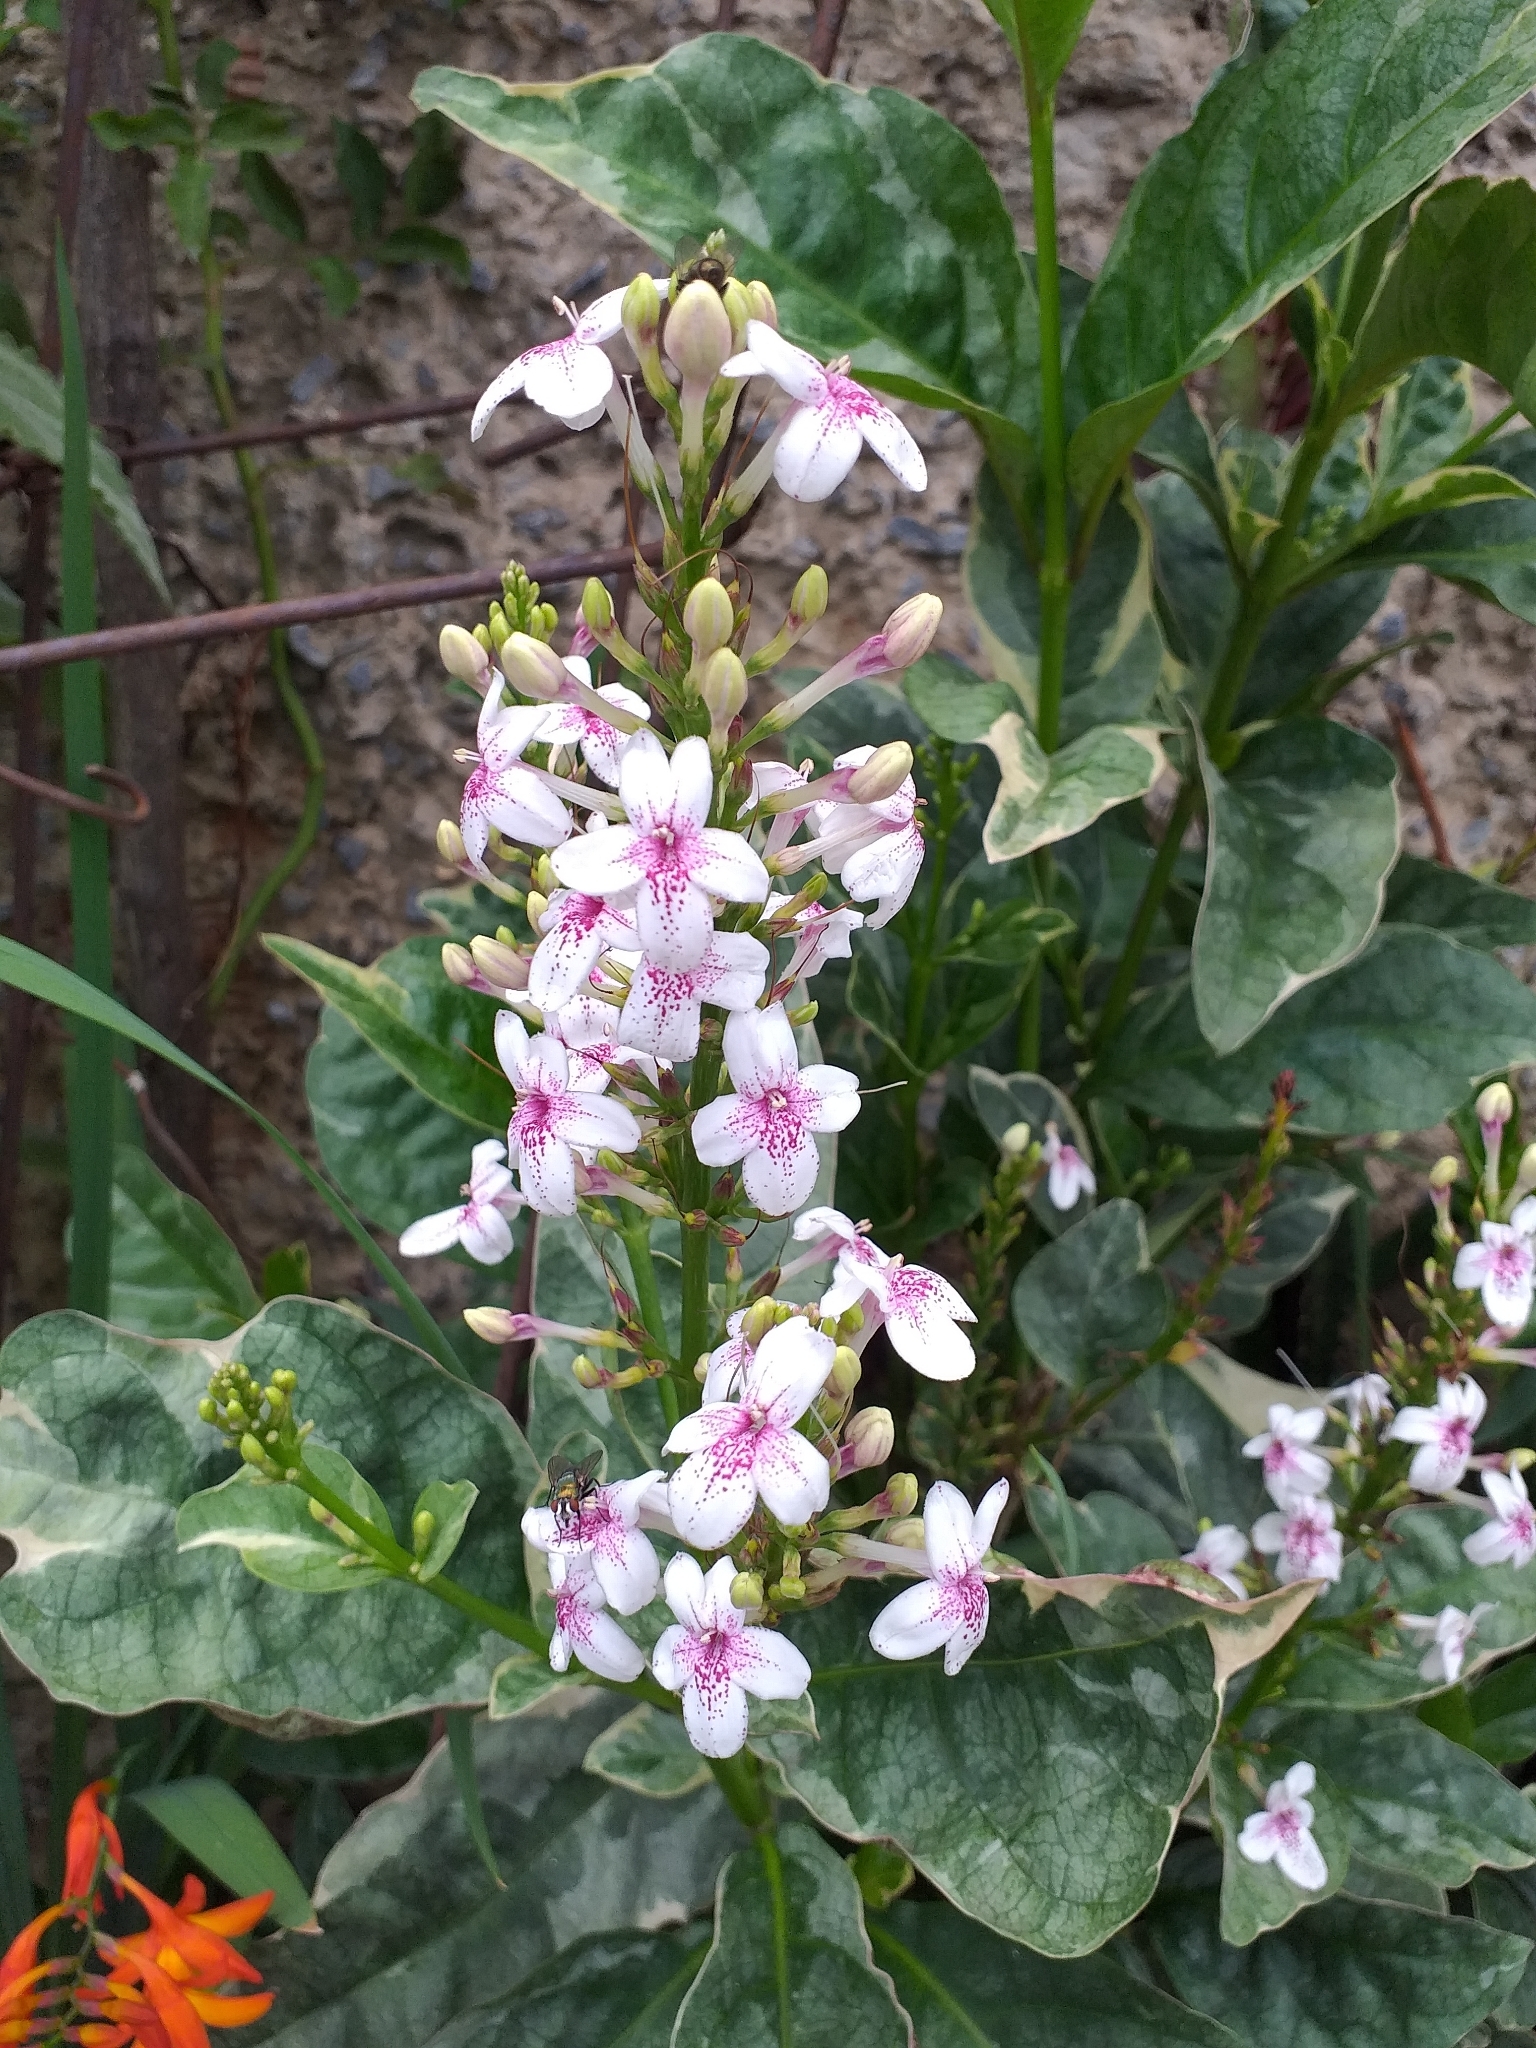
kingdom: Plantae
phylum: Tracheophyta
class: Magnoliopsida
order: Lamiales
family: Acanthaceae
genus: Pseuderanthemum
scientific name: Pseuderanthemum maculatum
